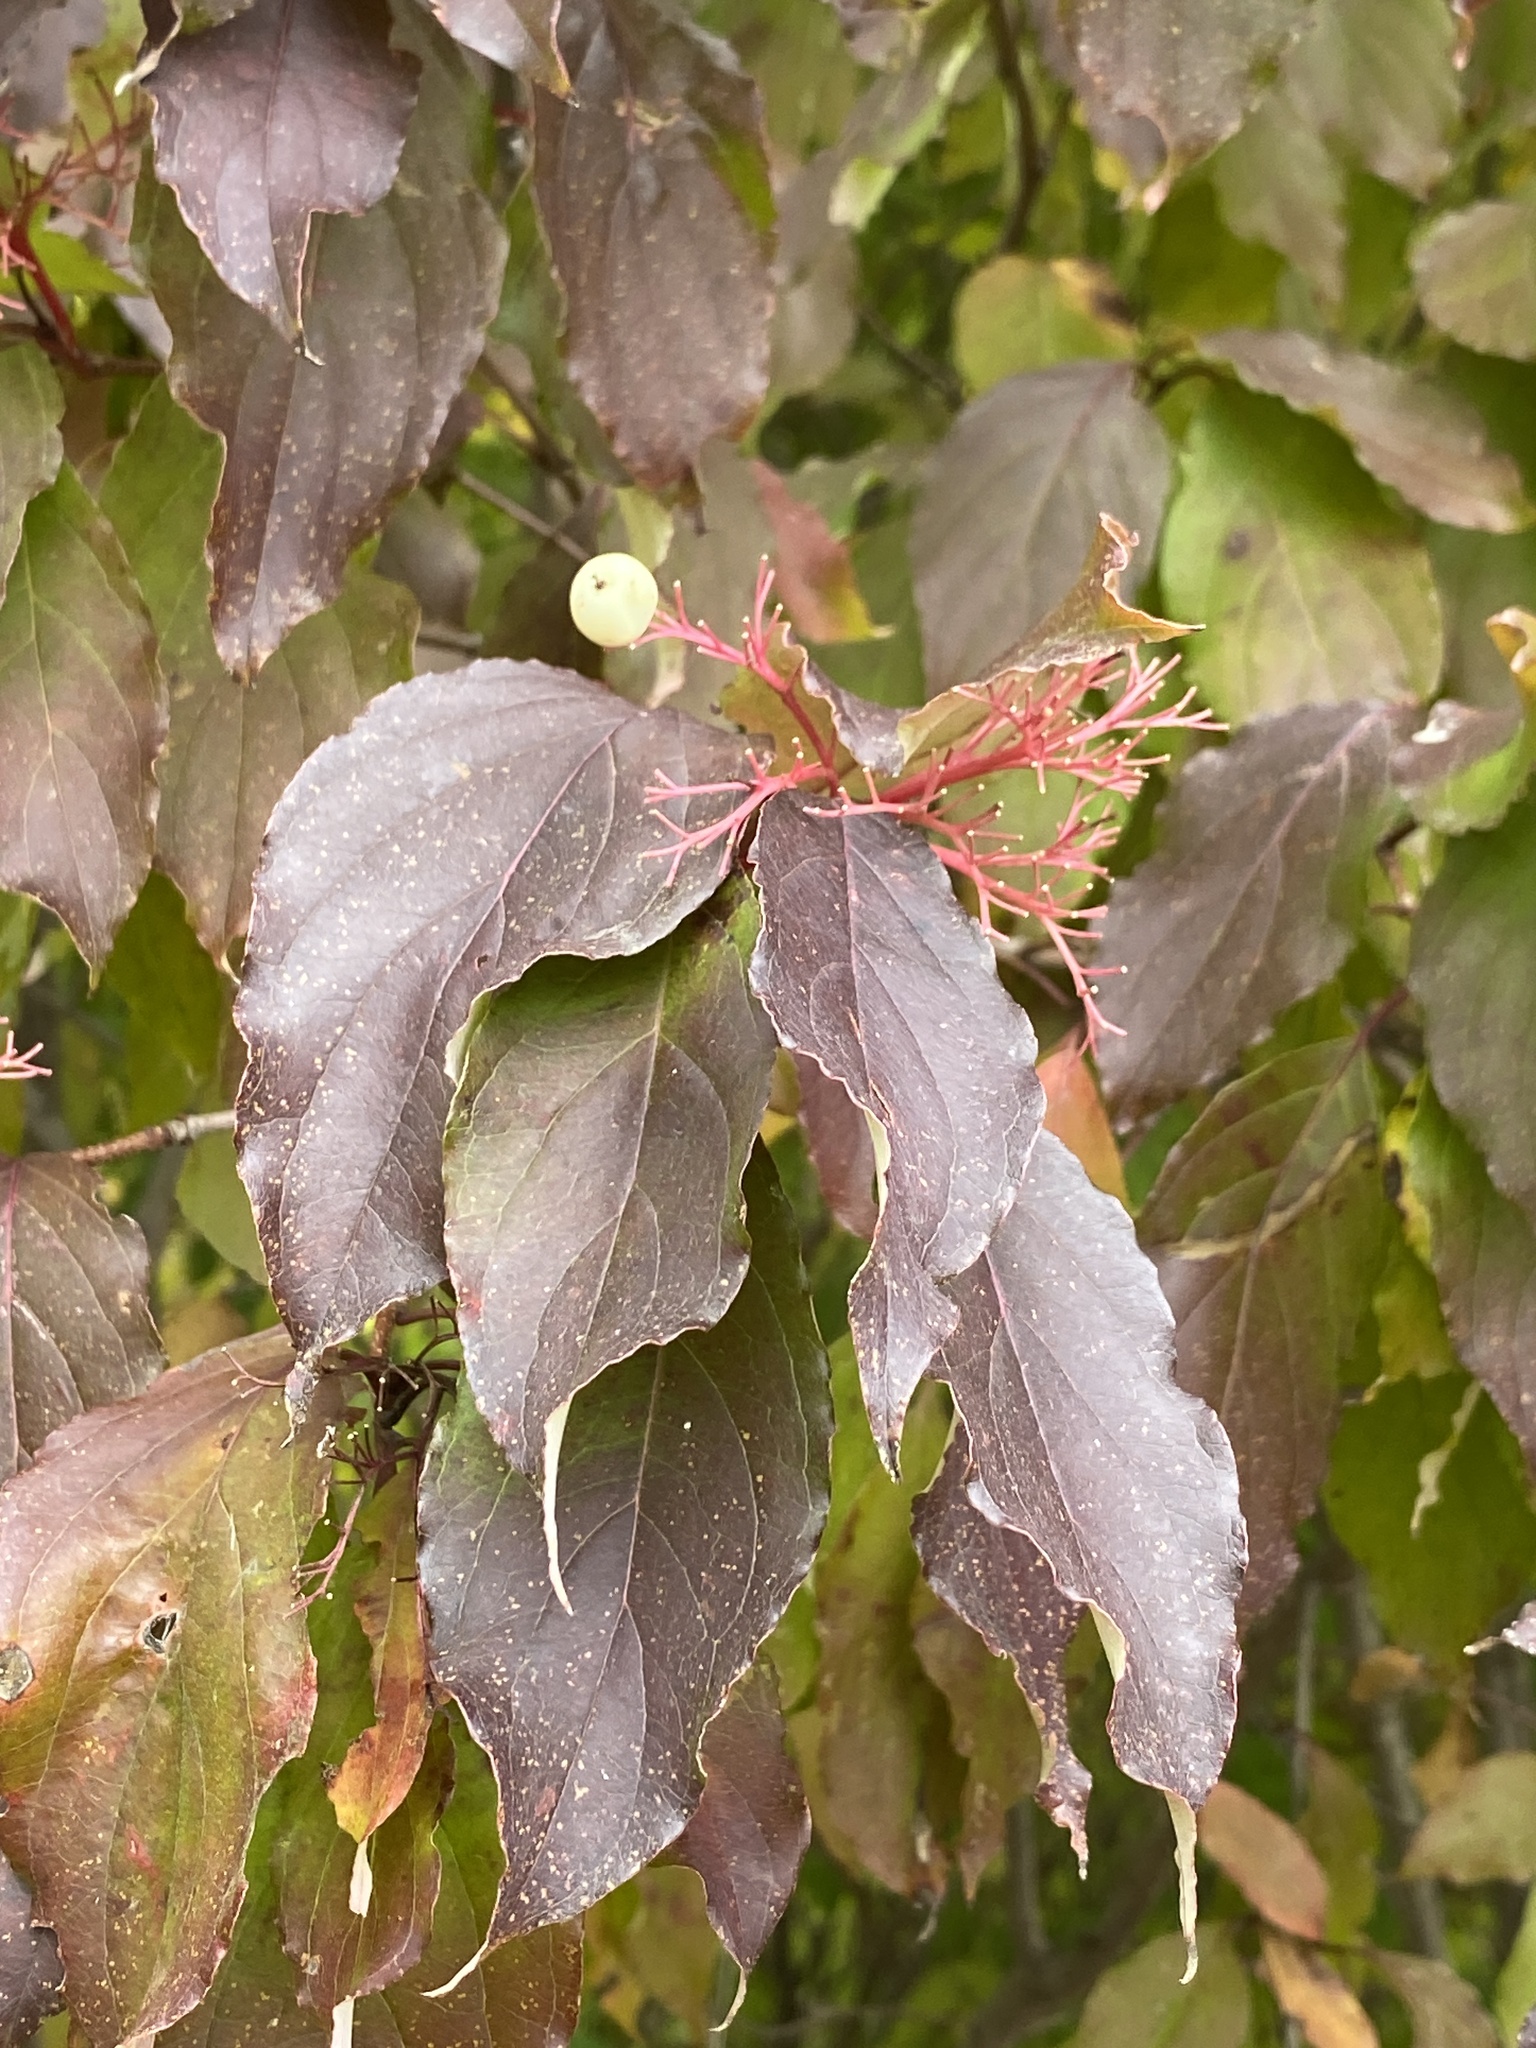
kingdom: Plantae
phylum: Tracheophyta
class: Magnoliopsida
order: Cornales
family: Cornaceae
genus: Cornus
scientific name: Cornus racemosa
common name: Panicled dogwood
